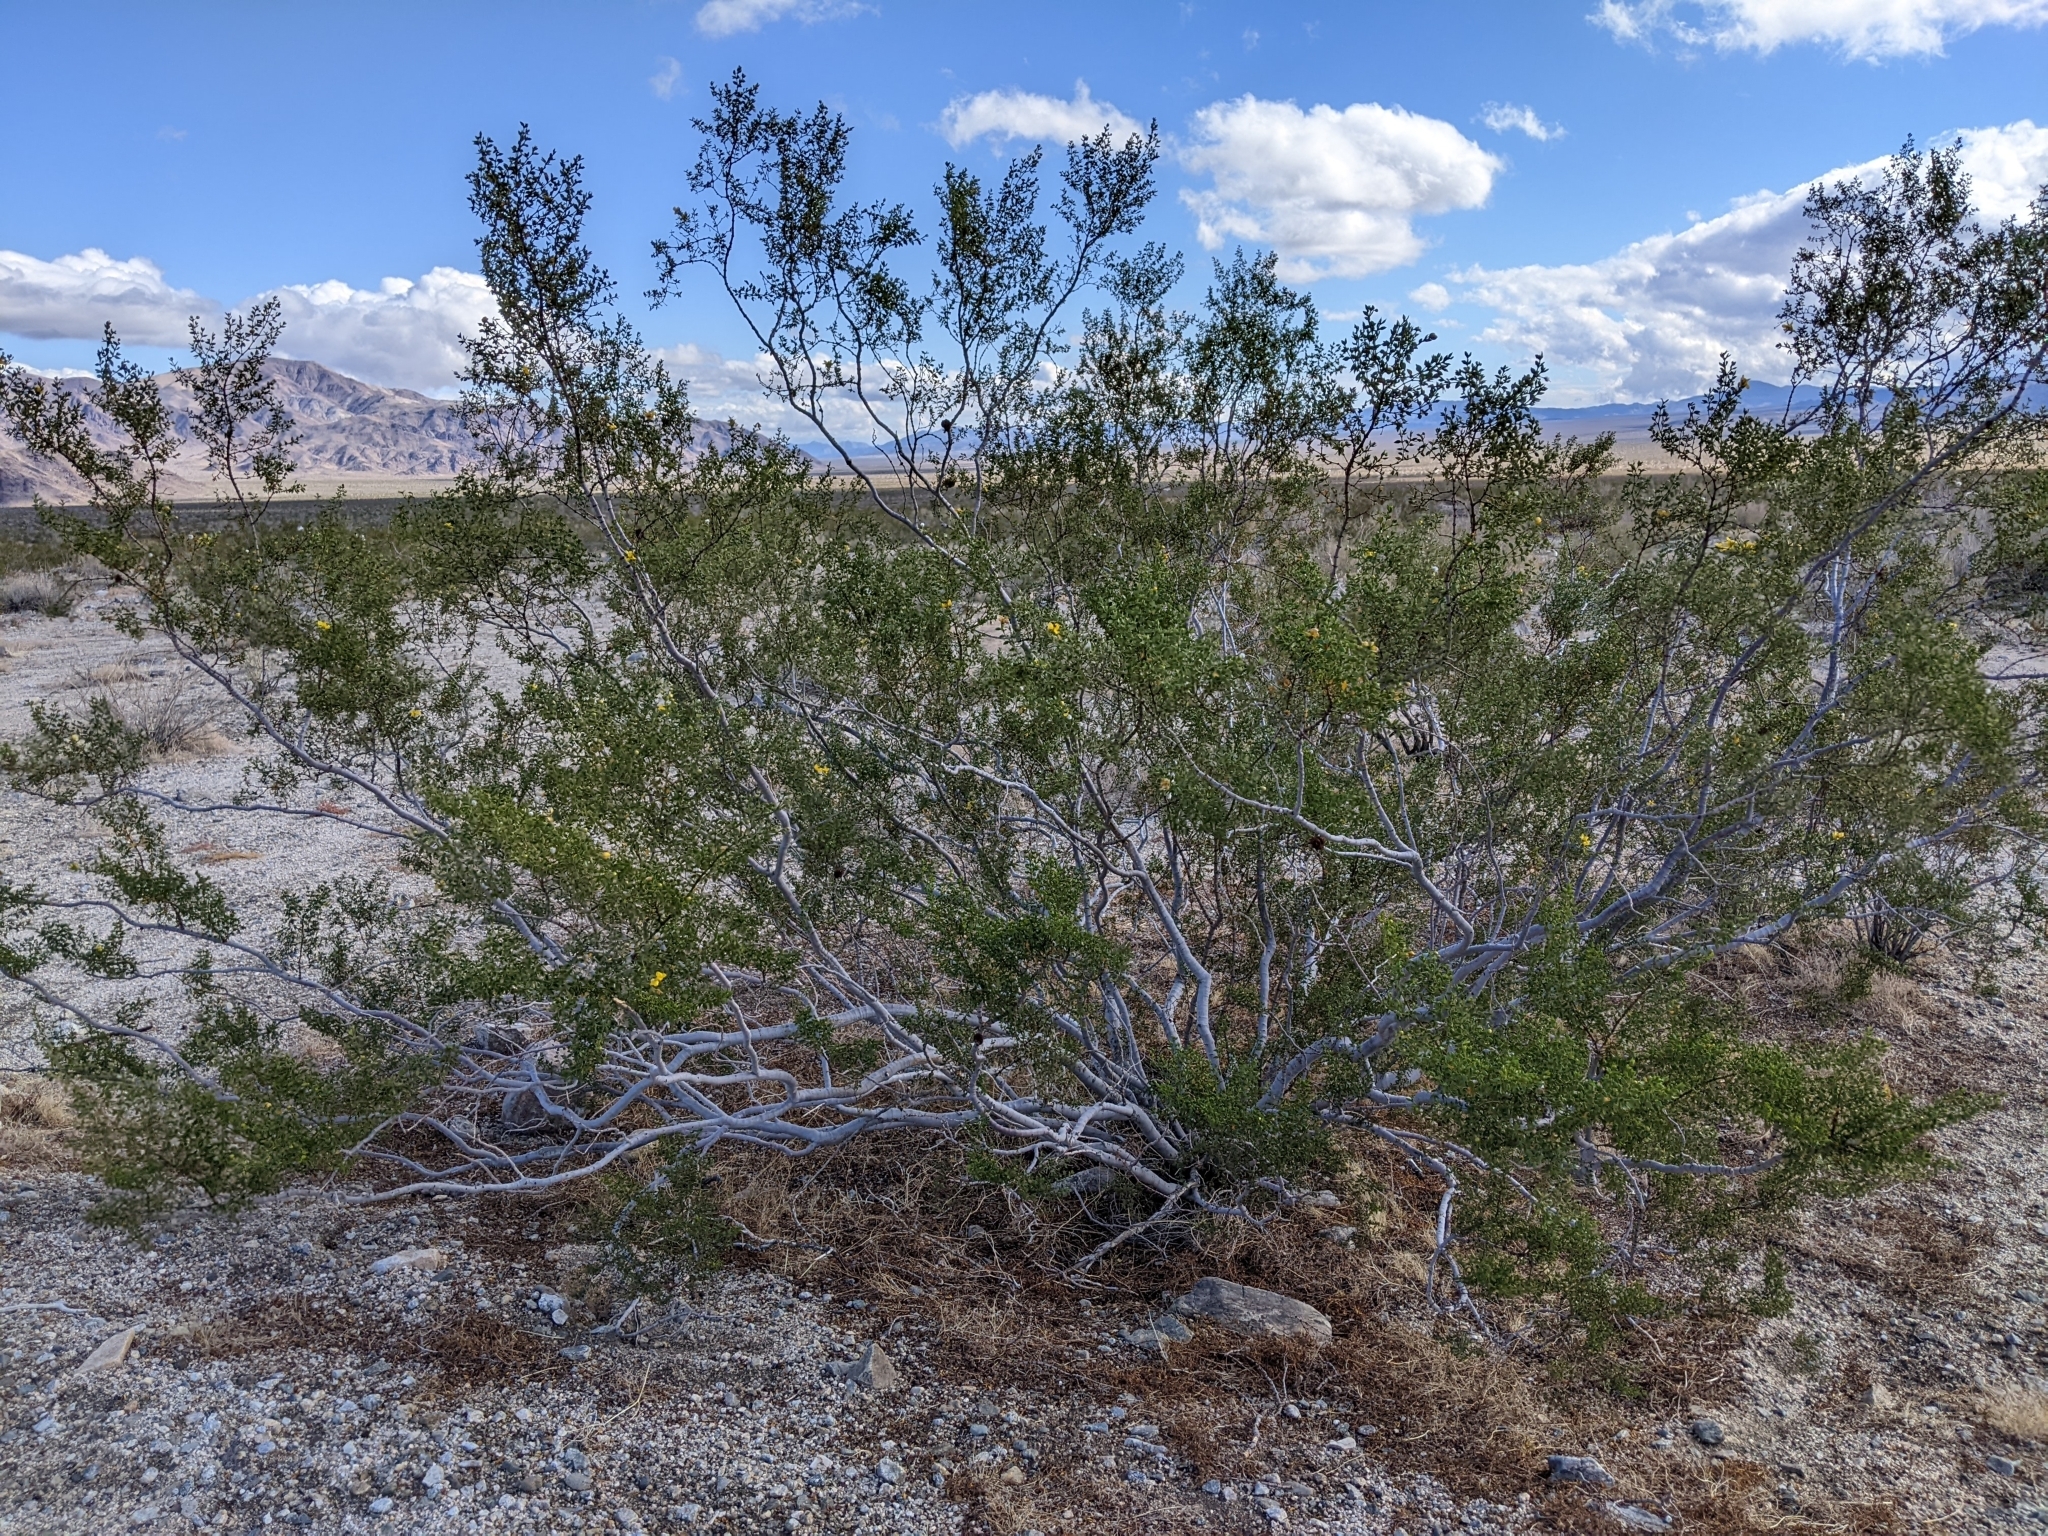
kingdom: Plantae
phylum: Tracheophyta
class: Magnoliopsida
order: Zygophyllales
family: Zygophyllaceae
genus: Larrea
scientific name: Larrea tridentata
